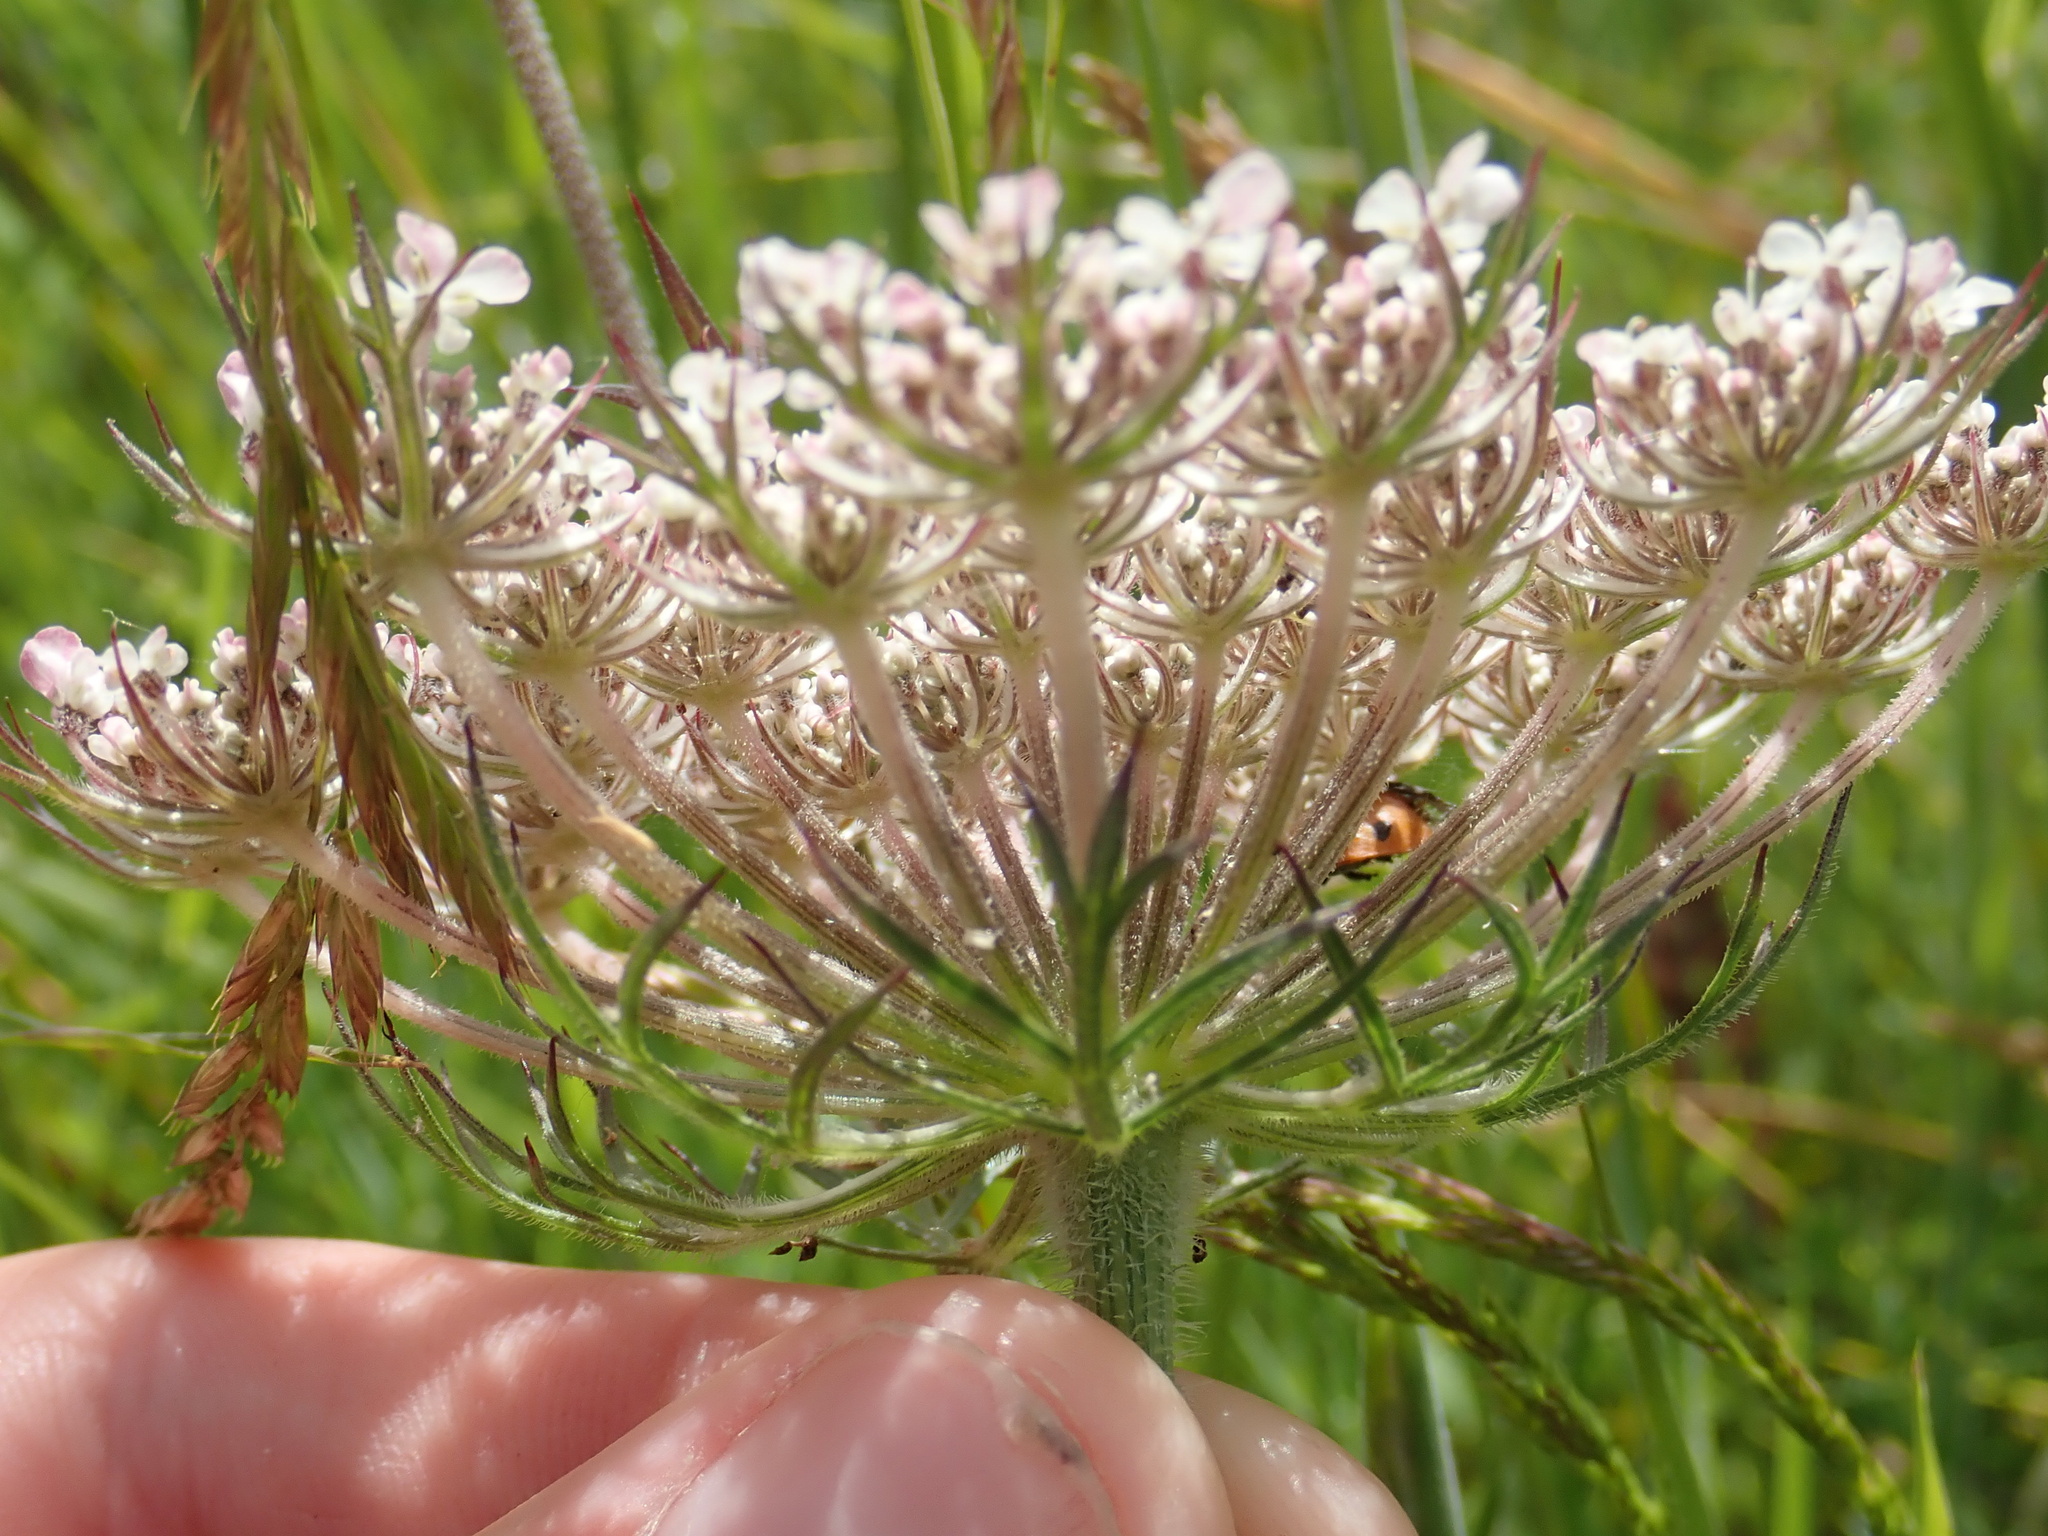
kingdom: Plantae
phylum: Tracheophyta
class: Magnoliopsida
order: Apiales
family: Apiaceae
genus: Daucus
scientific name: Daucus carota
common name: Wild carrot
